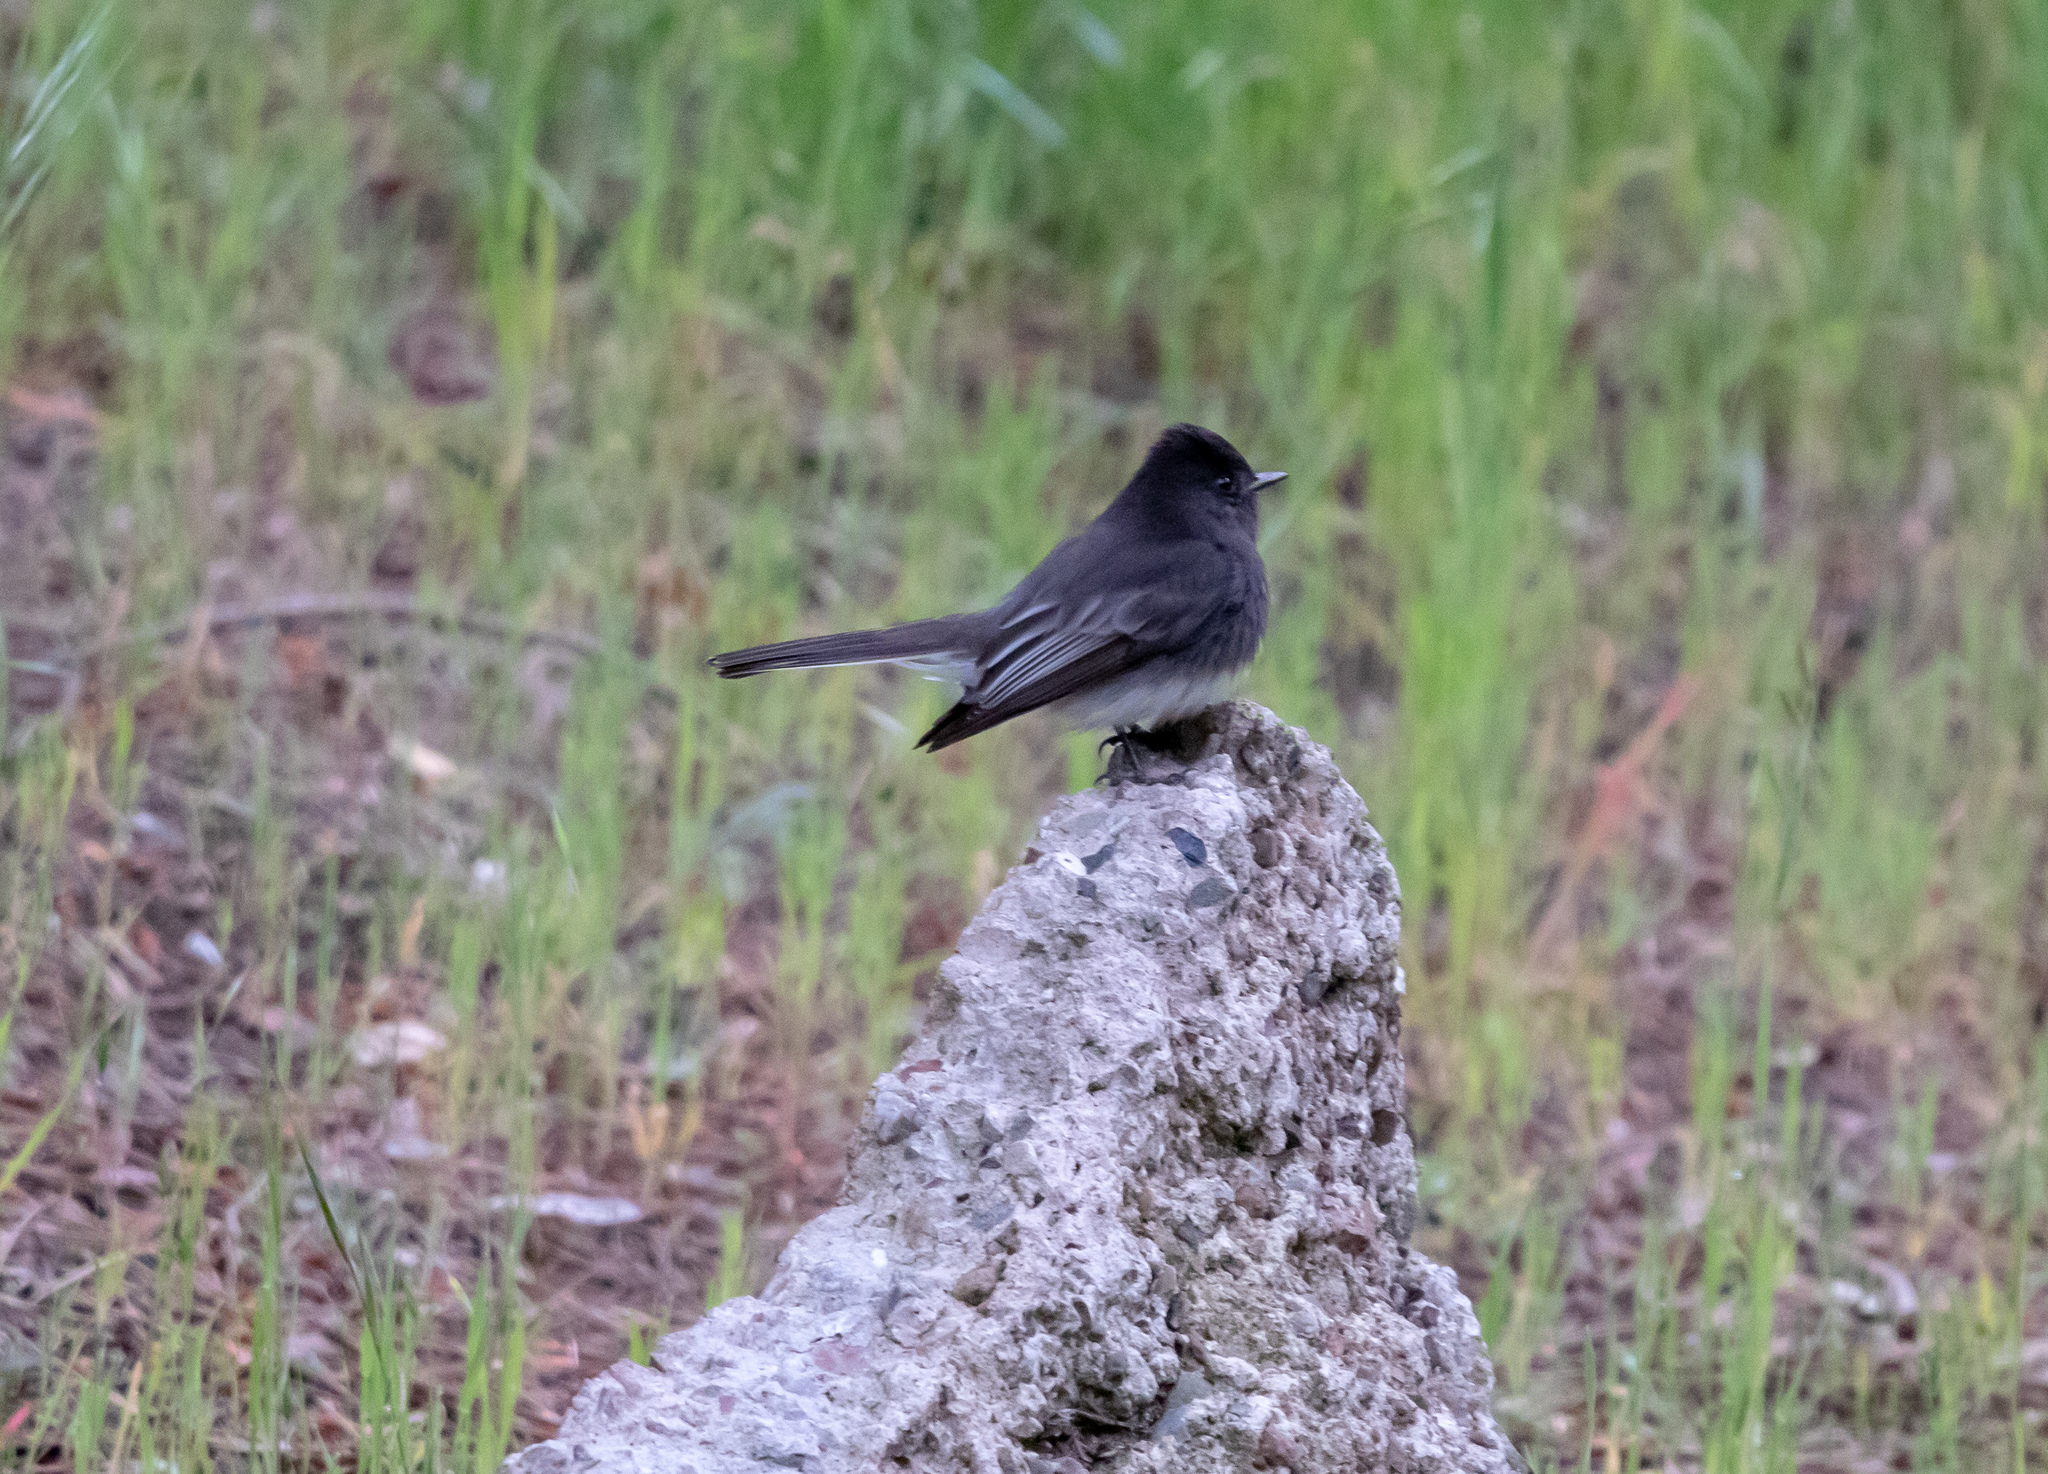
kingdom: Animalia
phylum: Chordata
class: Aves
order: Passeriformes
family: Tyrannidae
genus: Sayornis
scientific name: Sayornis nigricans
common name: Black phoebe
